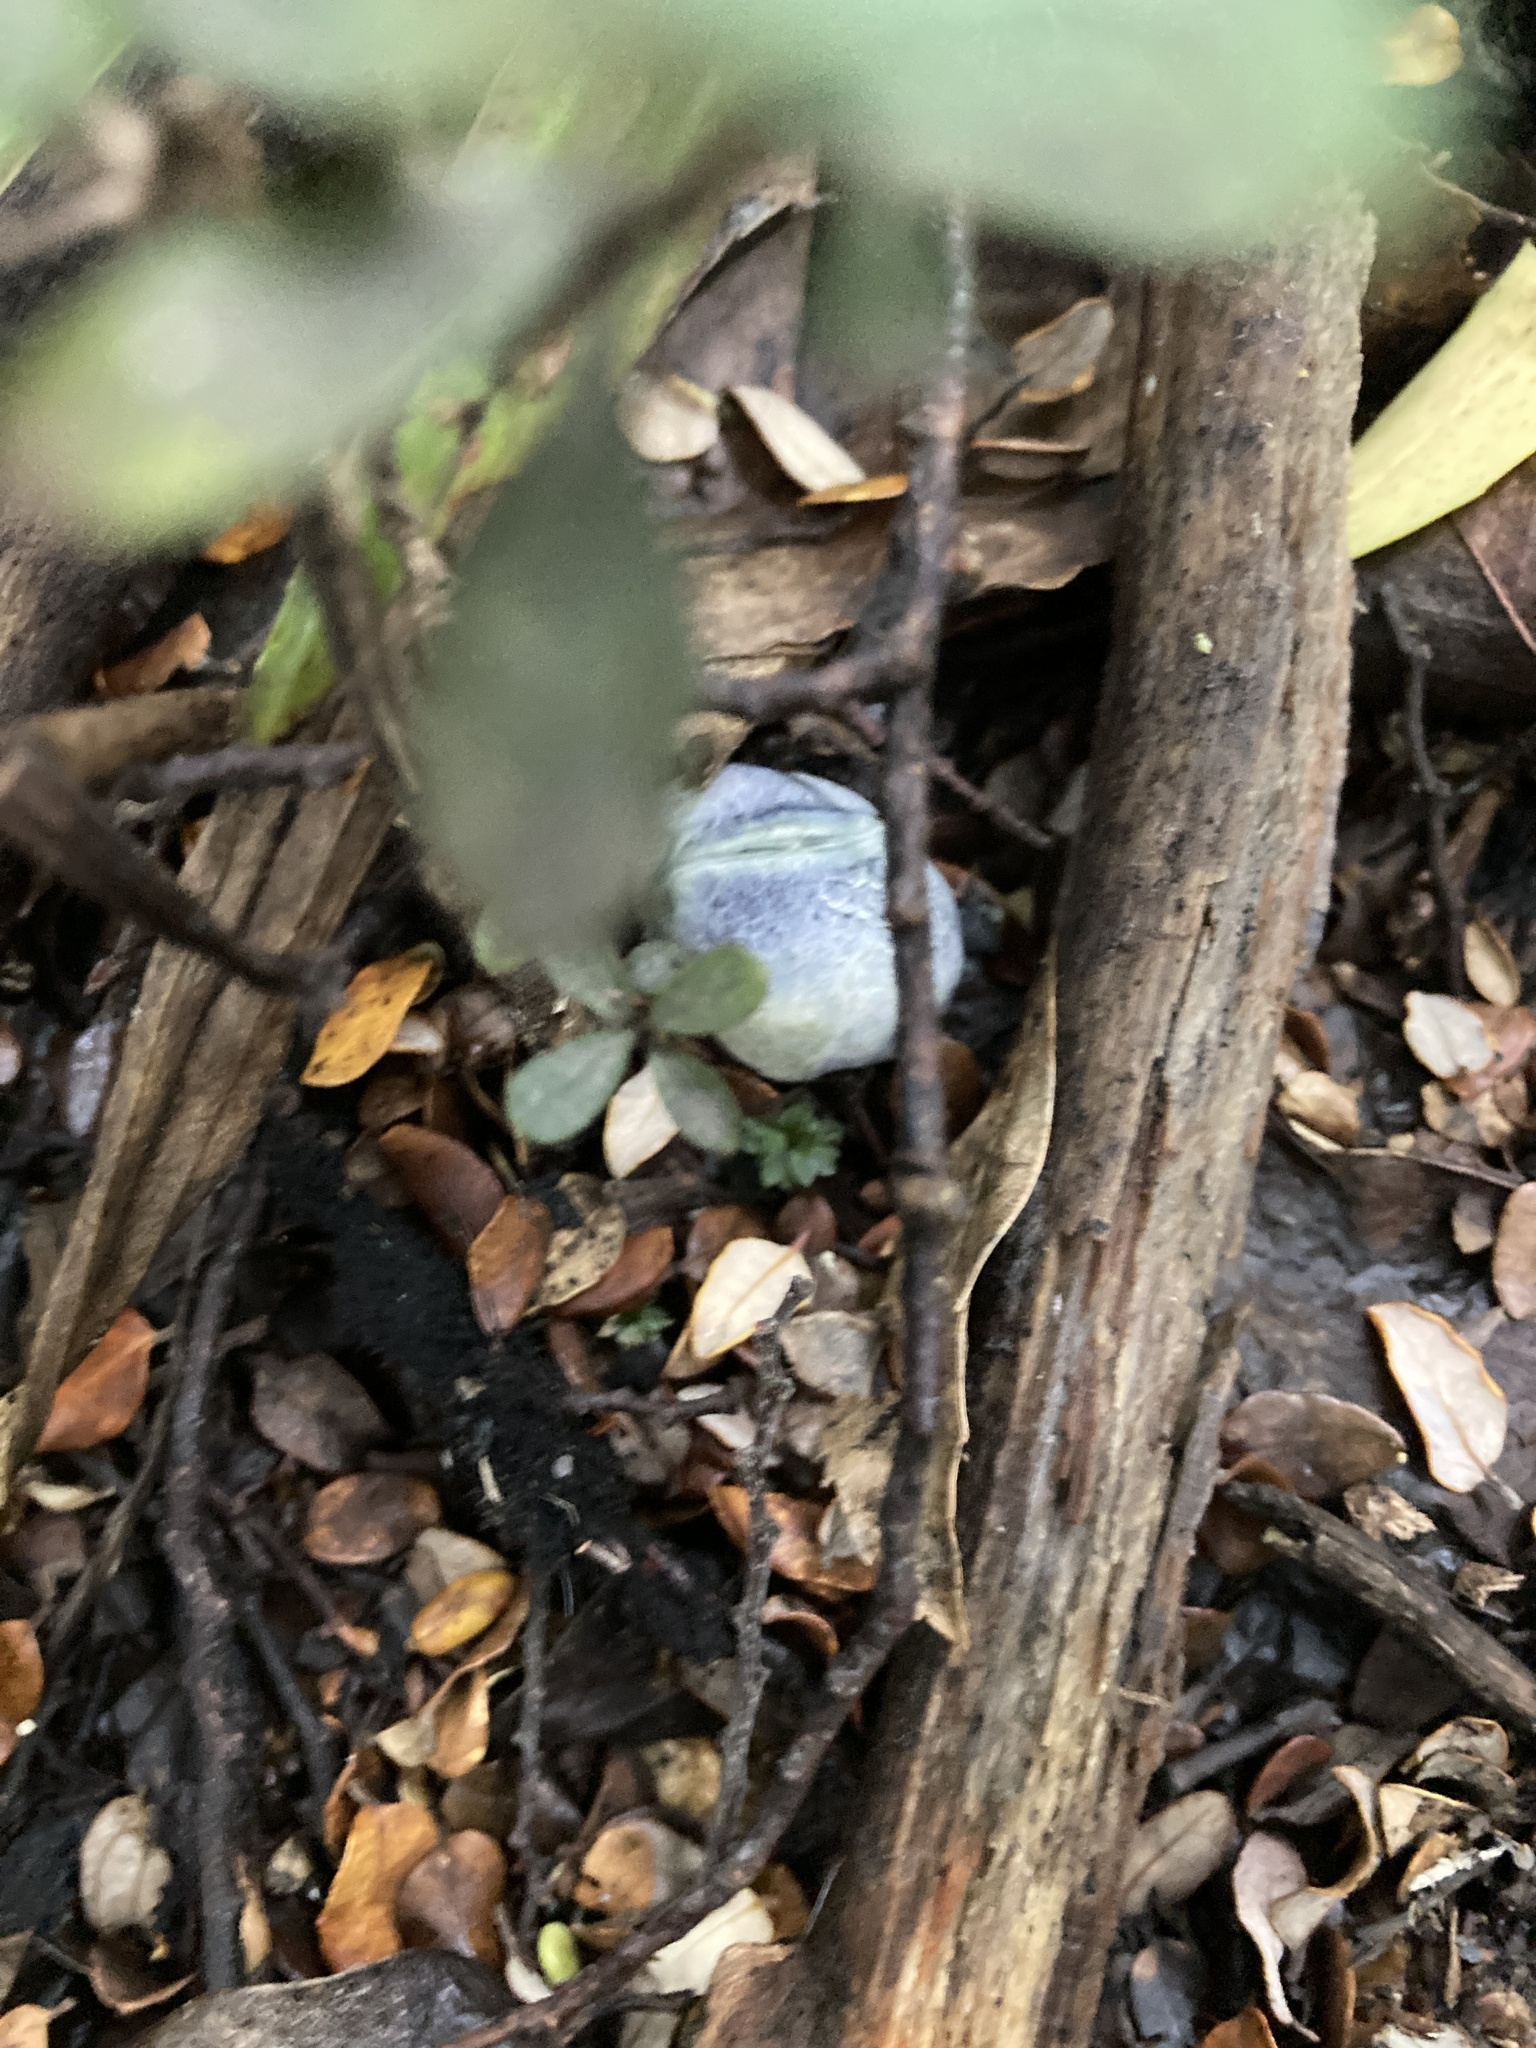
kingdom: Fungi
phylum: Basidiomycota
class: Agaricomycetes
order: Boletales
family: Boletaceae
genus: Leccinum
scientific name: Leccinum pachyderme
